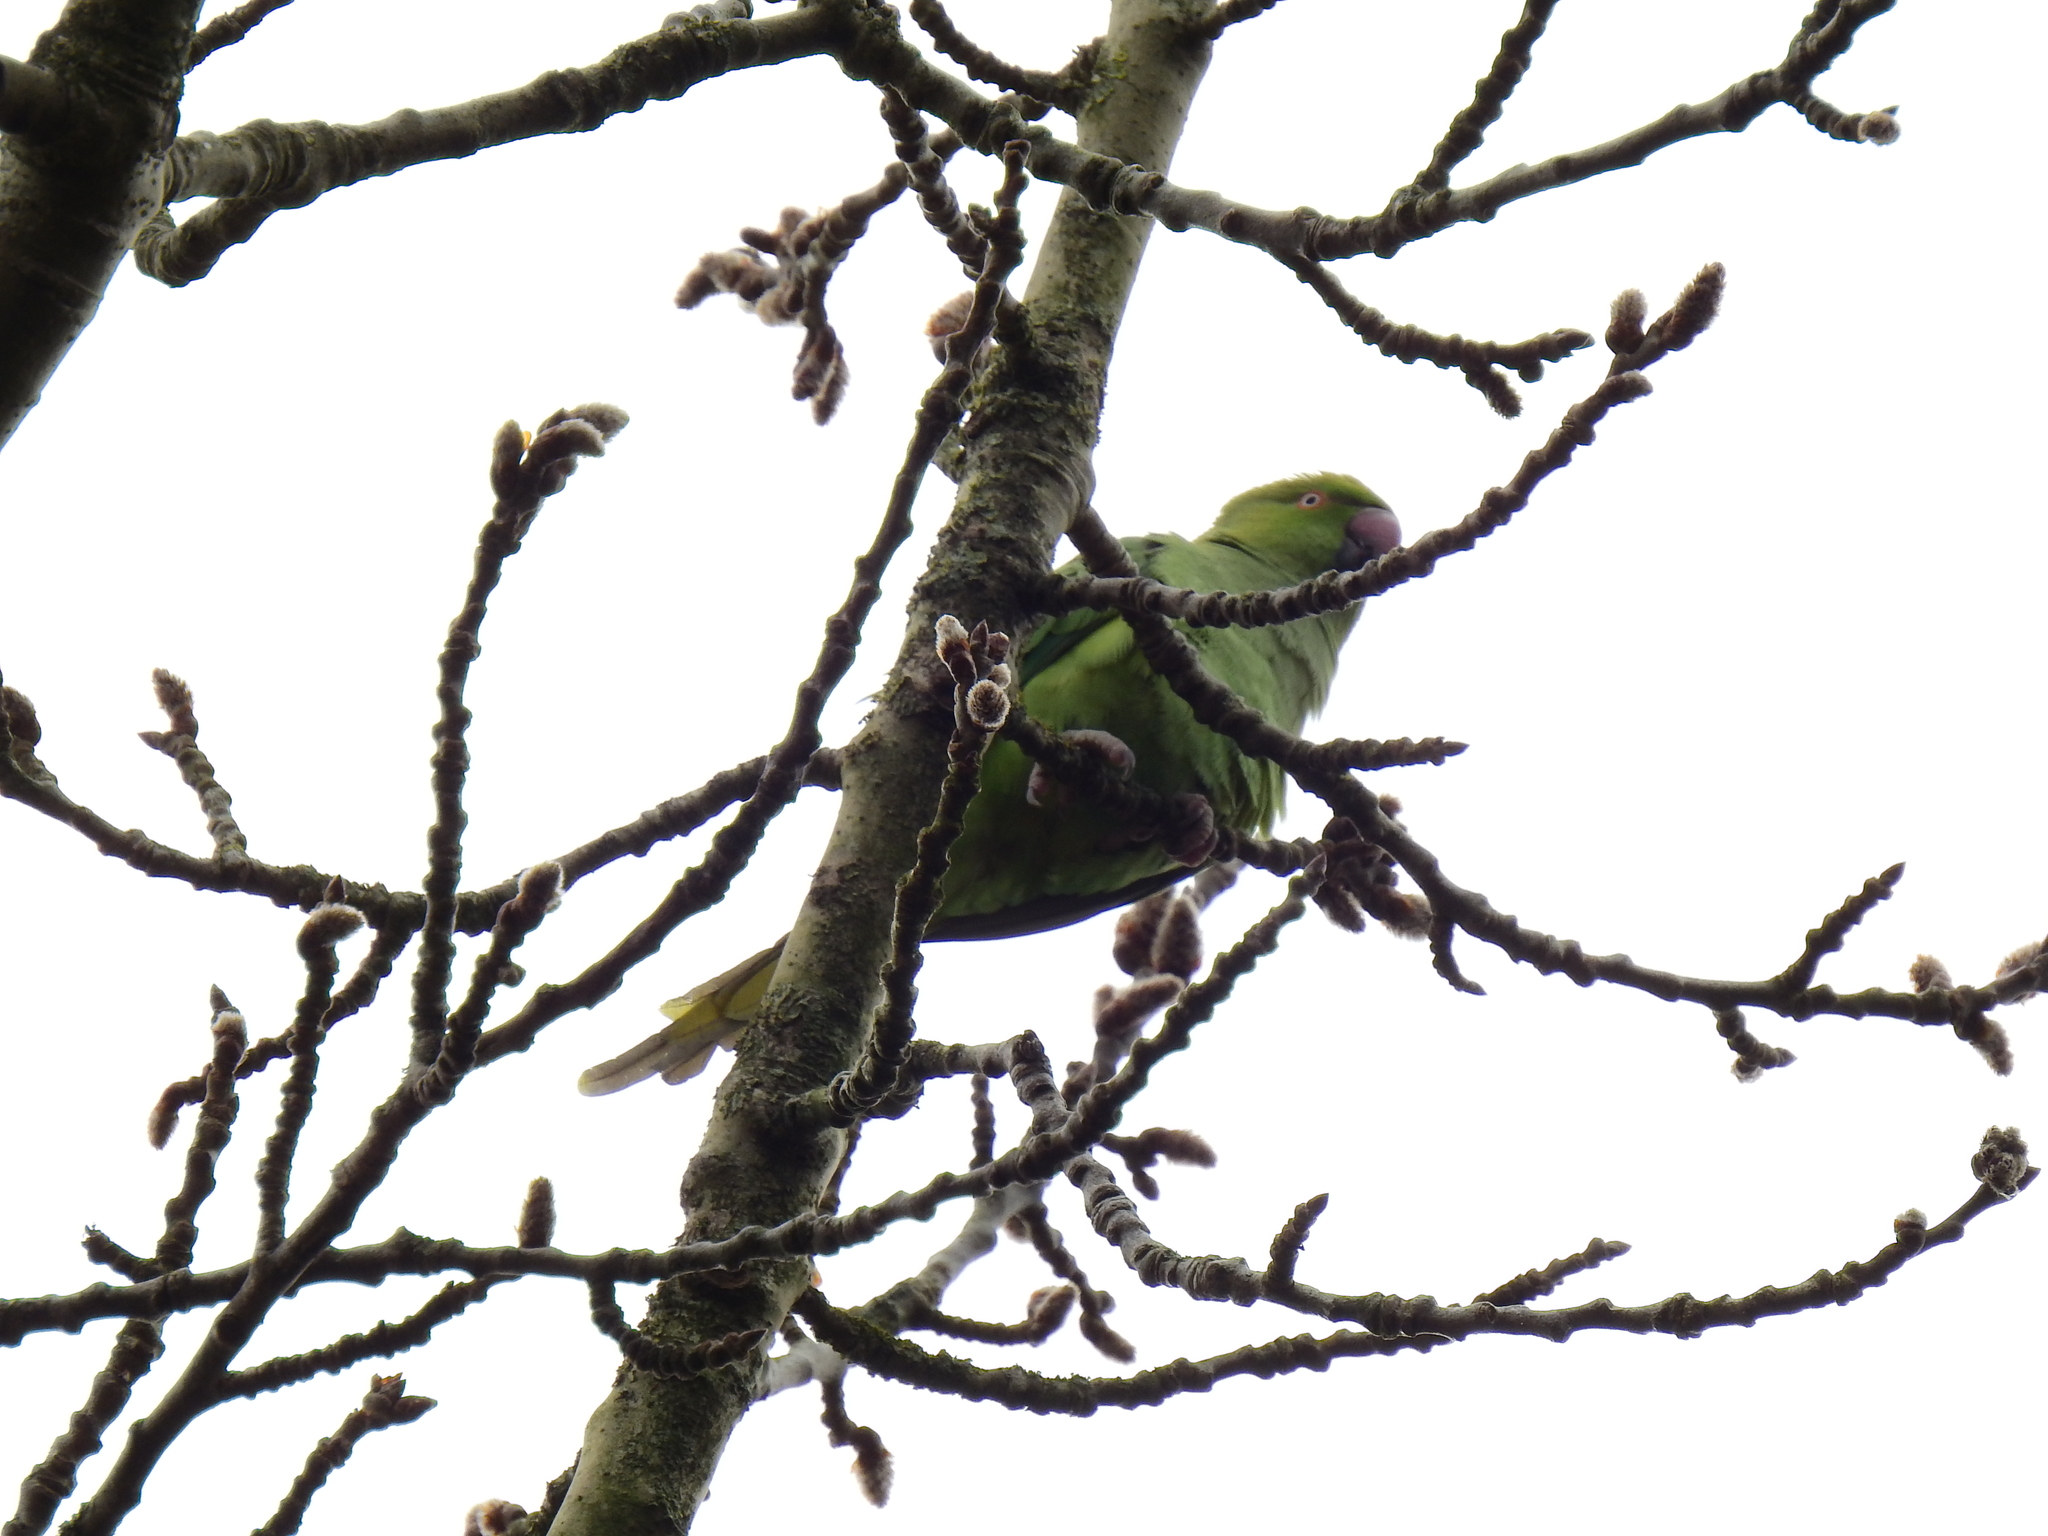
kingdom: Animalia
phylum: Chordata
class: Aves
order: Psittaciformes
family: Psittacidae
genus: Psittacula
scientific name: Psittacula krameri
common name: Rose-ringed parakeet
